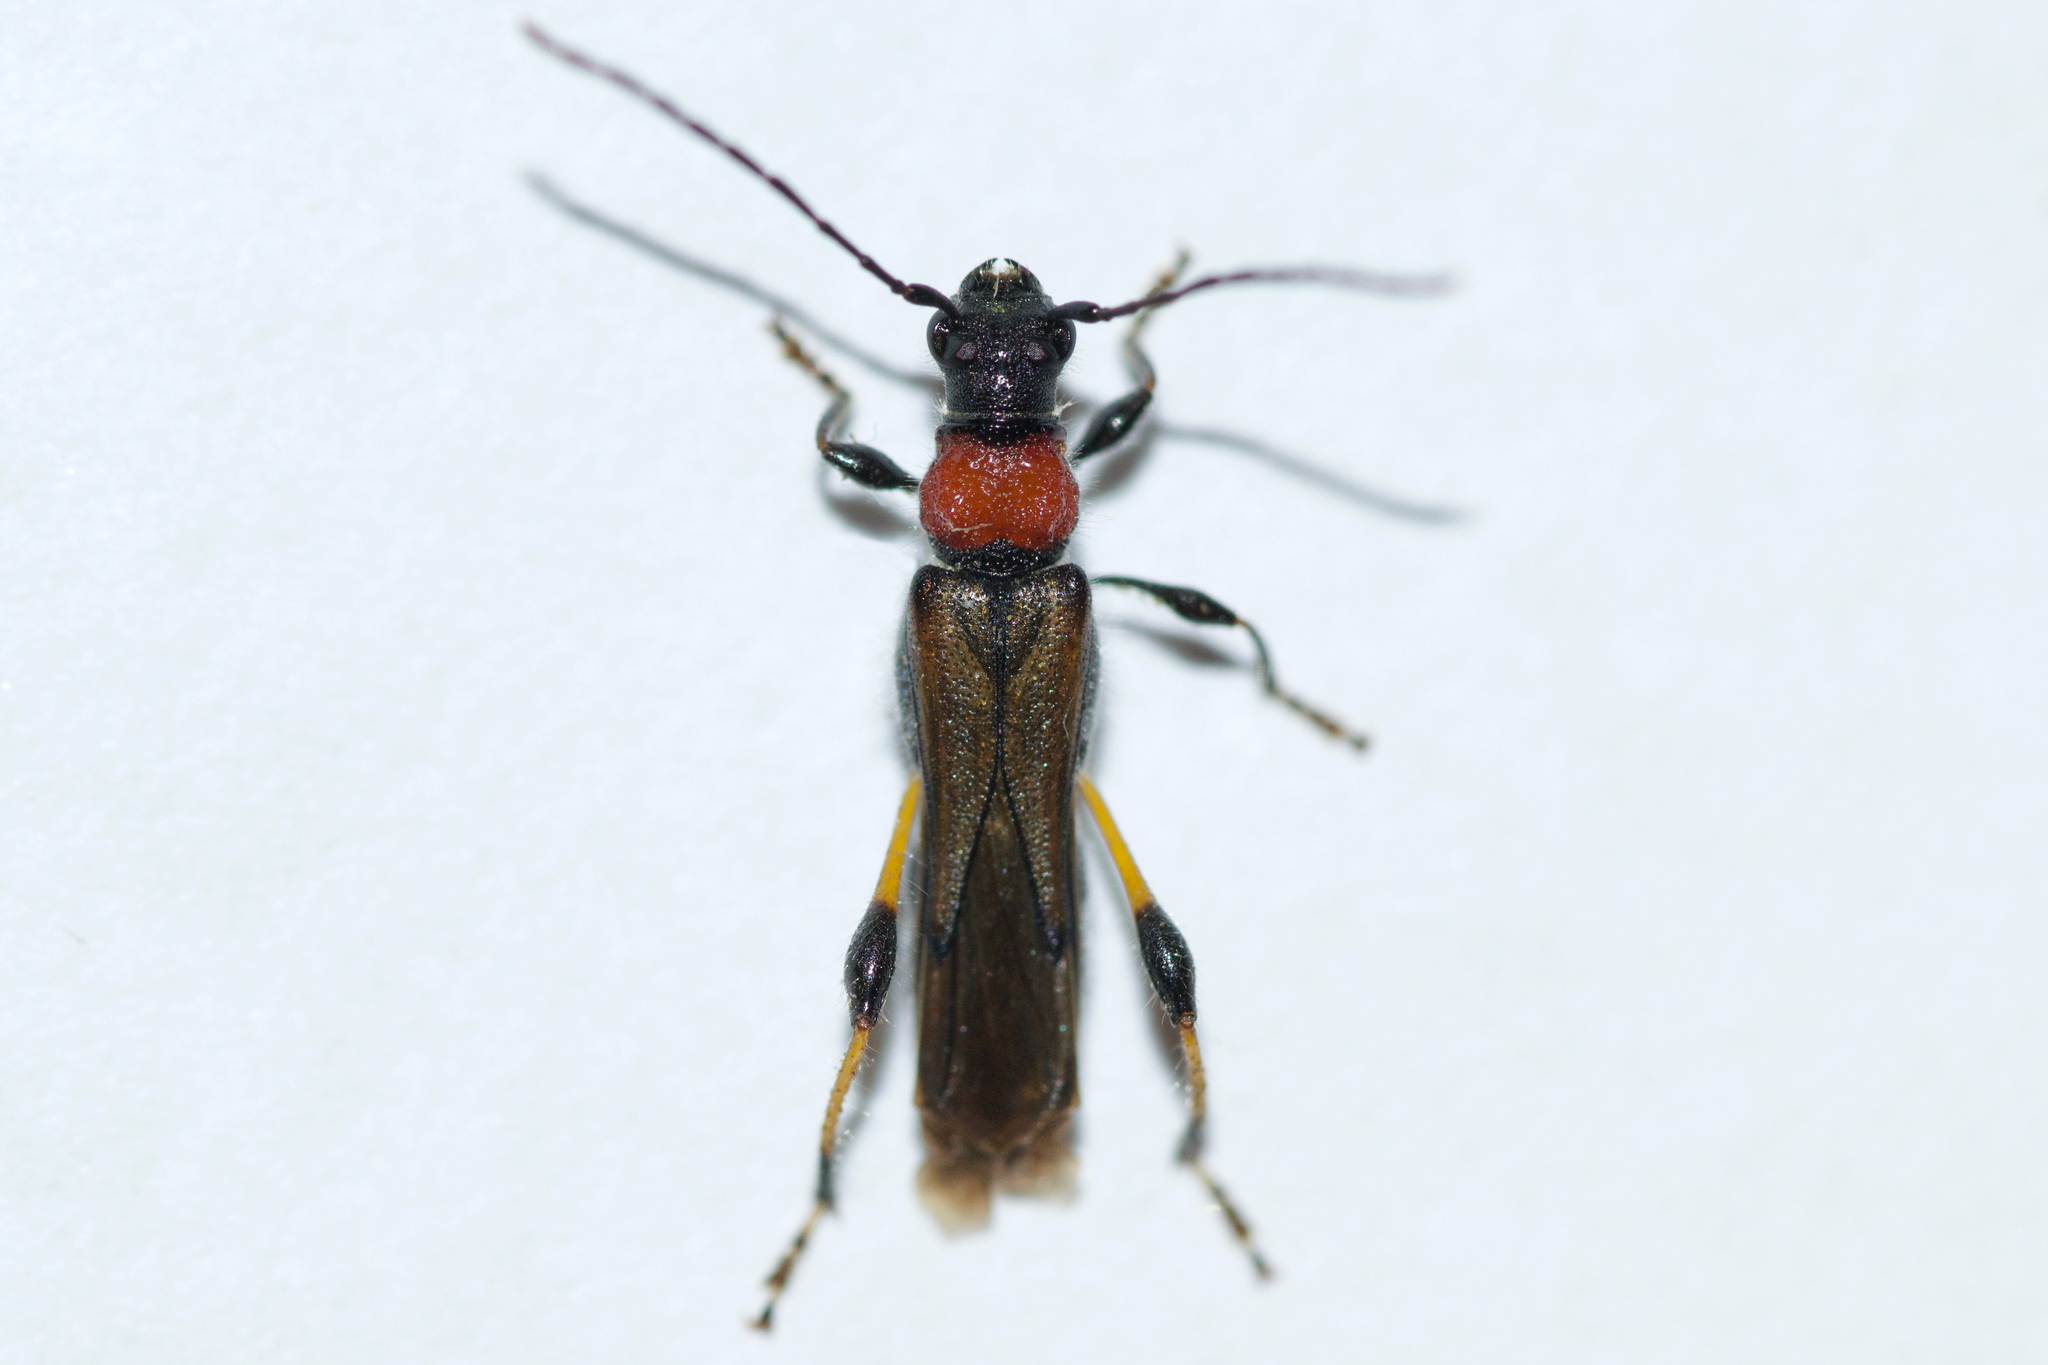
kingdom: Animalia
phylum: Arthropoda
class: Insecta
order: Coleoptera
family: Cerambycidae
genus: Callimoxys
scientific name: Callimoxys sanguinicollis
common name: Blood-necked longhorn beetle
